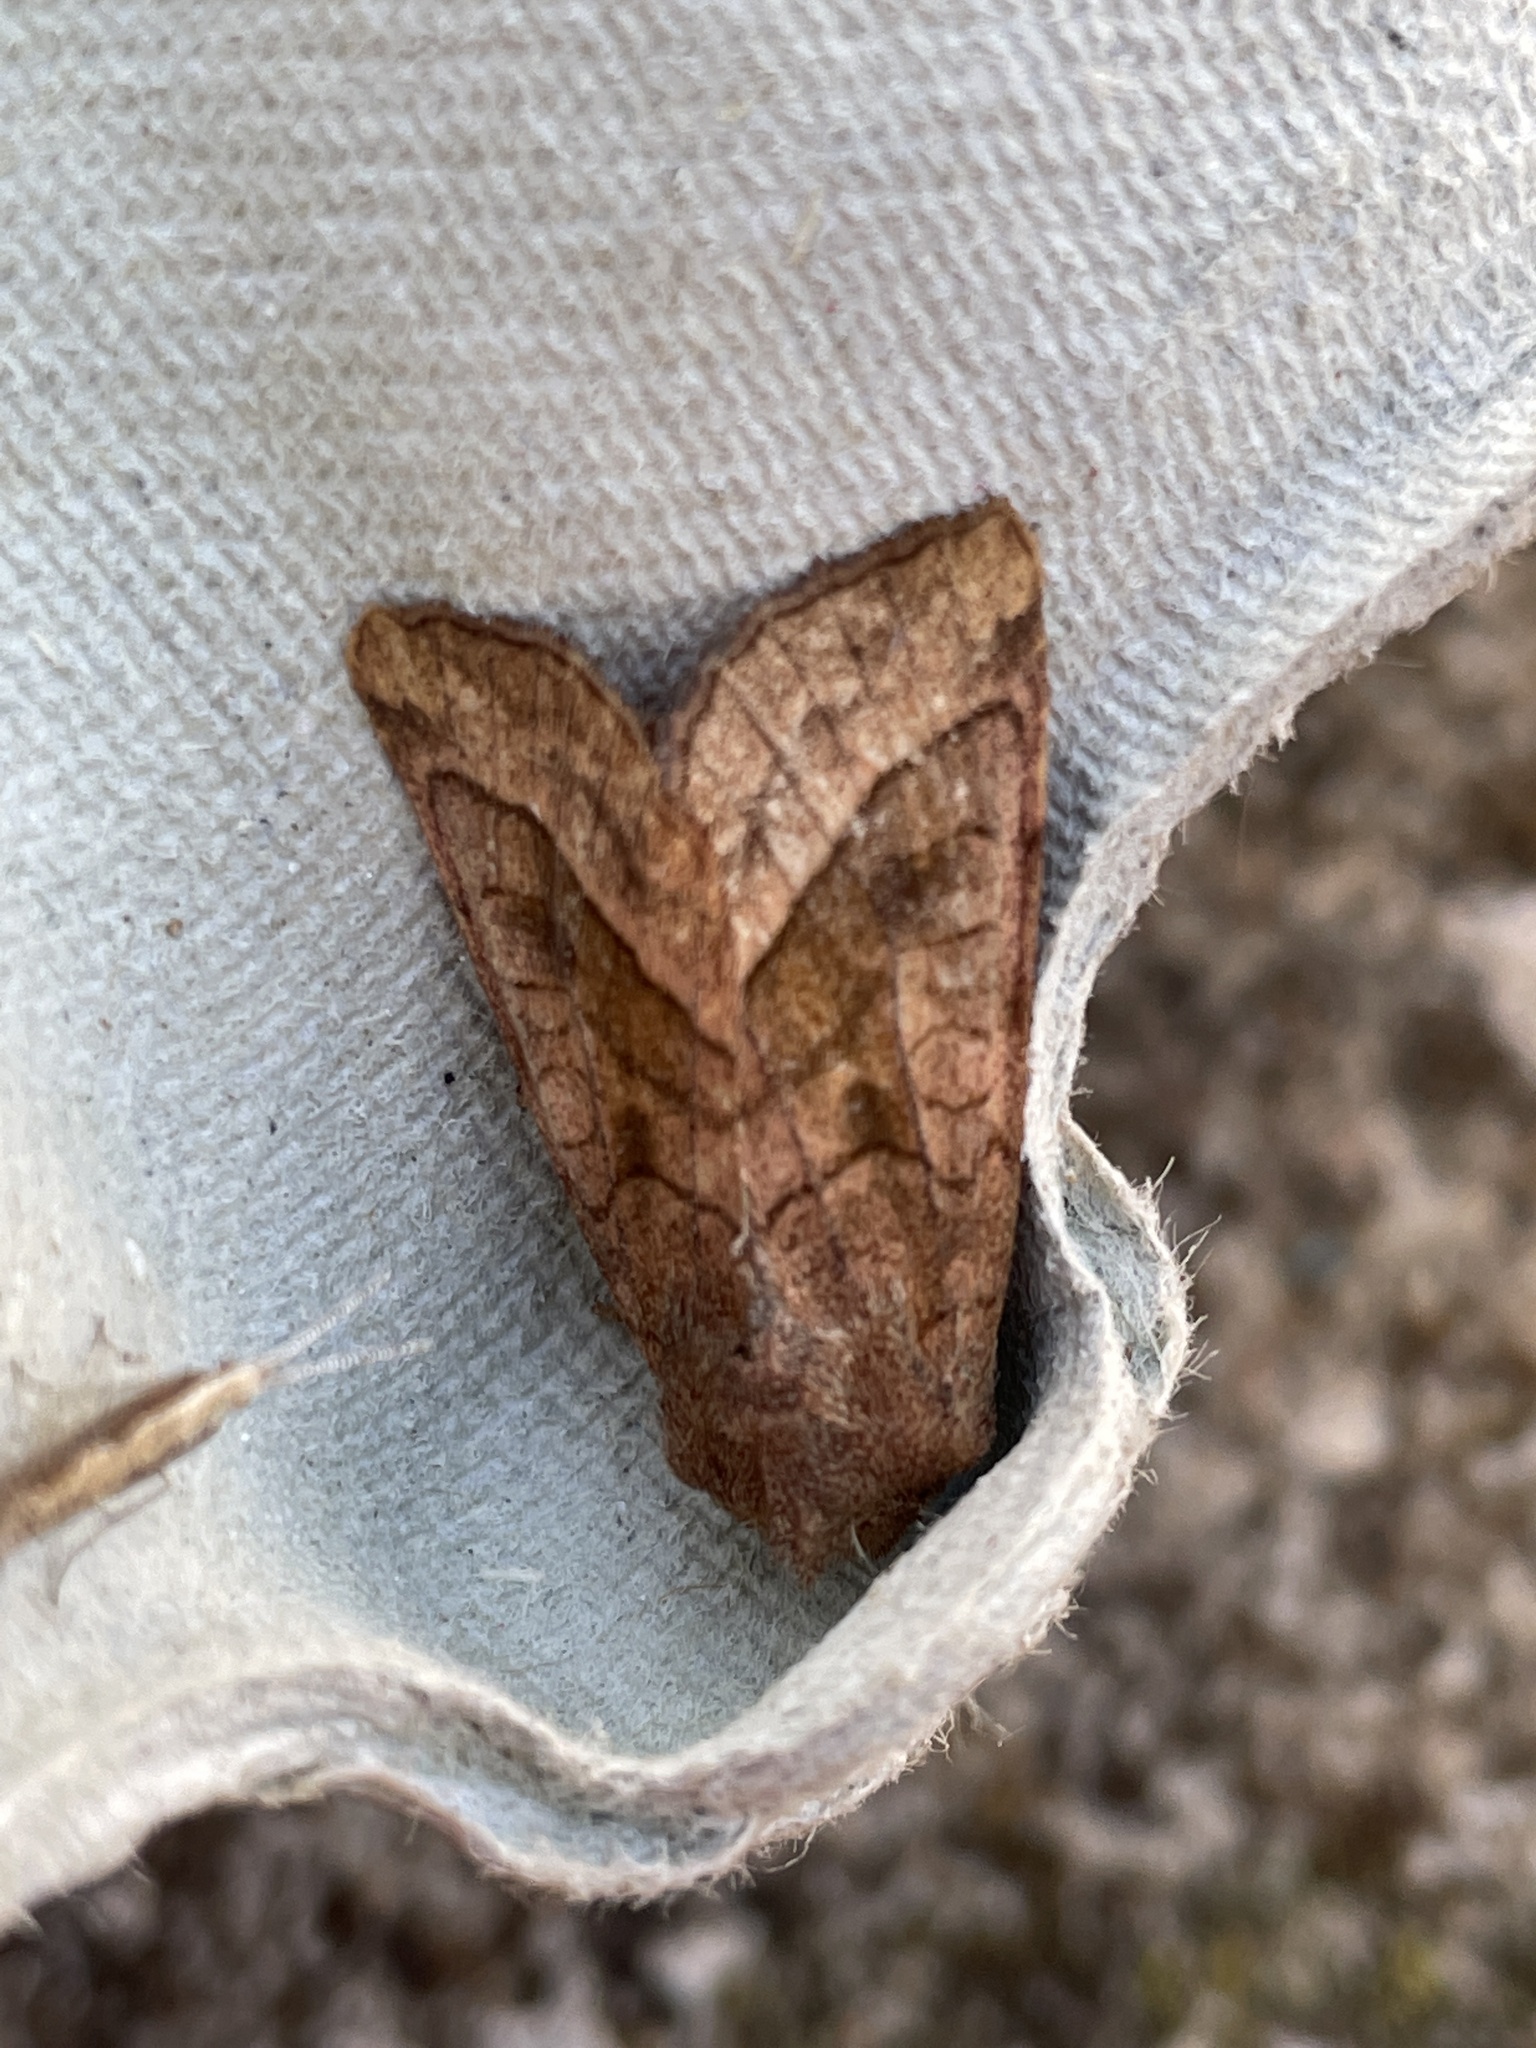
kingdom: Animalia
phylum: Arthropoda
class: Insecta
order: Lepidoptera
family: Noctuidae
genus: Hydraecia
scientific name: Hydraecia micacea
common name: Rosy rustic
